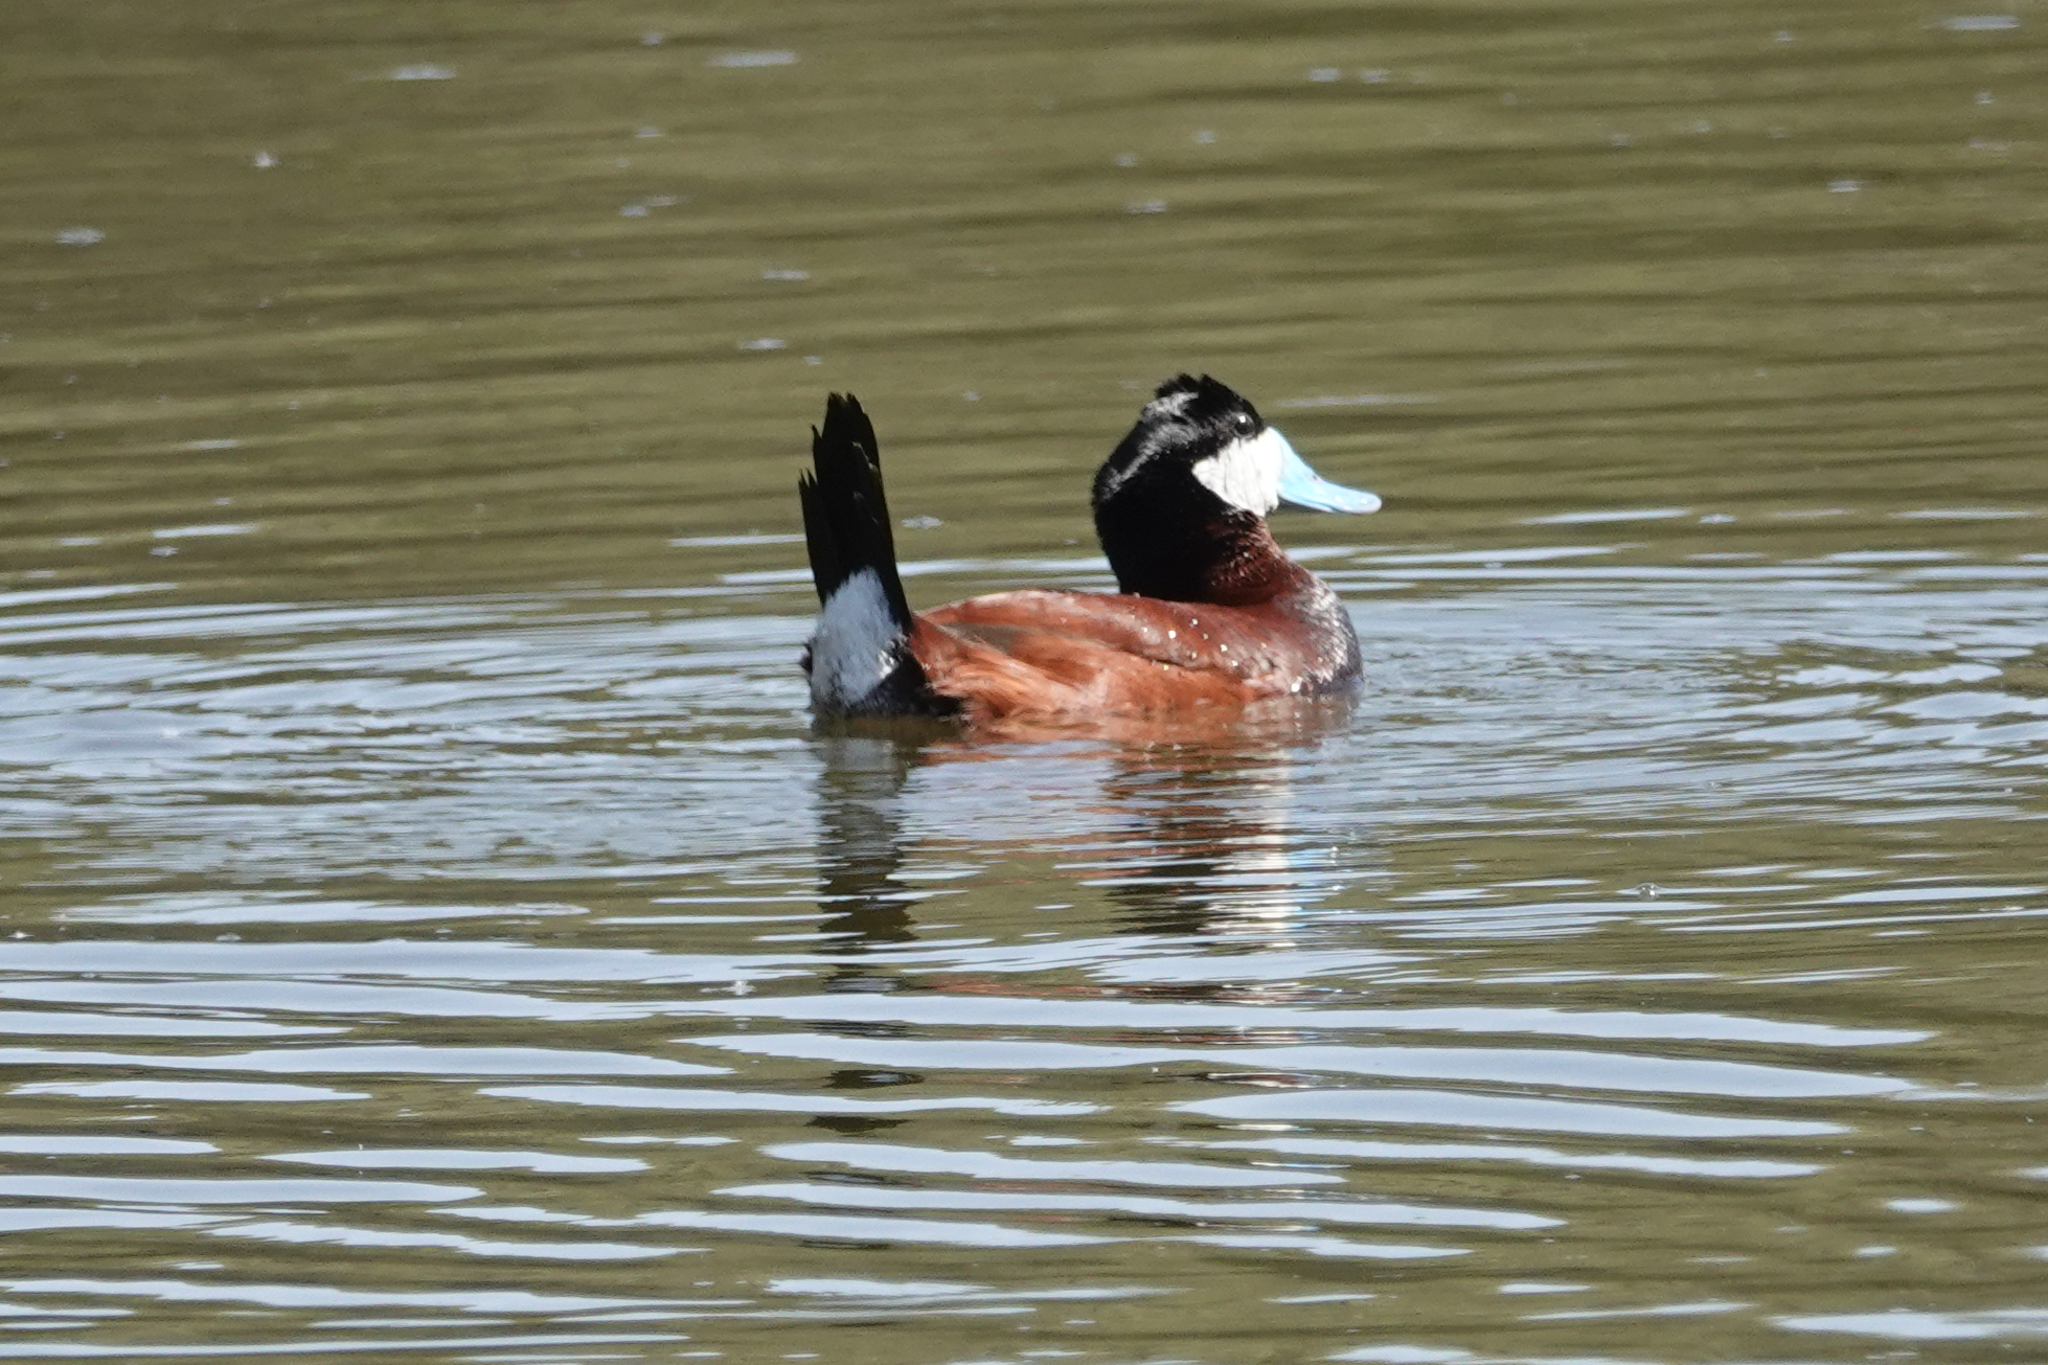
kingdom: Animalia
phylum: Chordata
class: Aves
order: Anseriformes
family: Anatidae
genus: Oxyura
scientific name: Oxyura jamaicensis
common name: Ruddy duck
